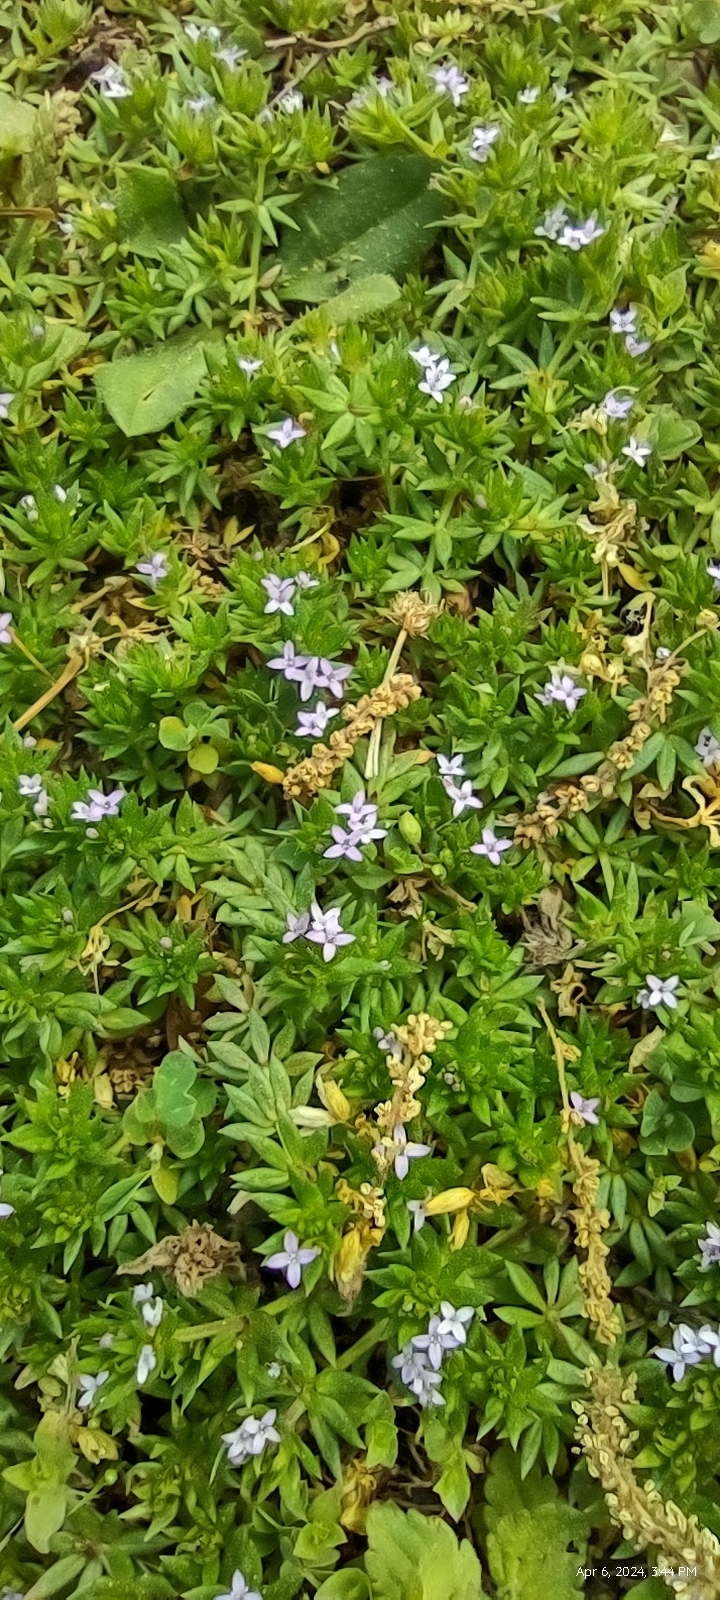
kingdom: Plantae
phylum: Tracheophyta
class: Magnoliopsida
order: Gentianales
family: Rubiaceae
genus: Sherardia
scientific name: Sherardia arvensis
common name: Field madder
